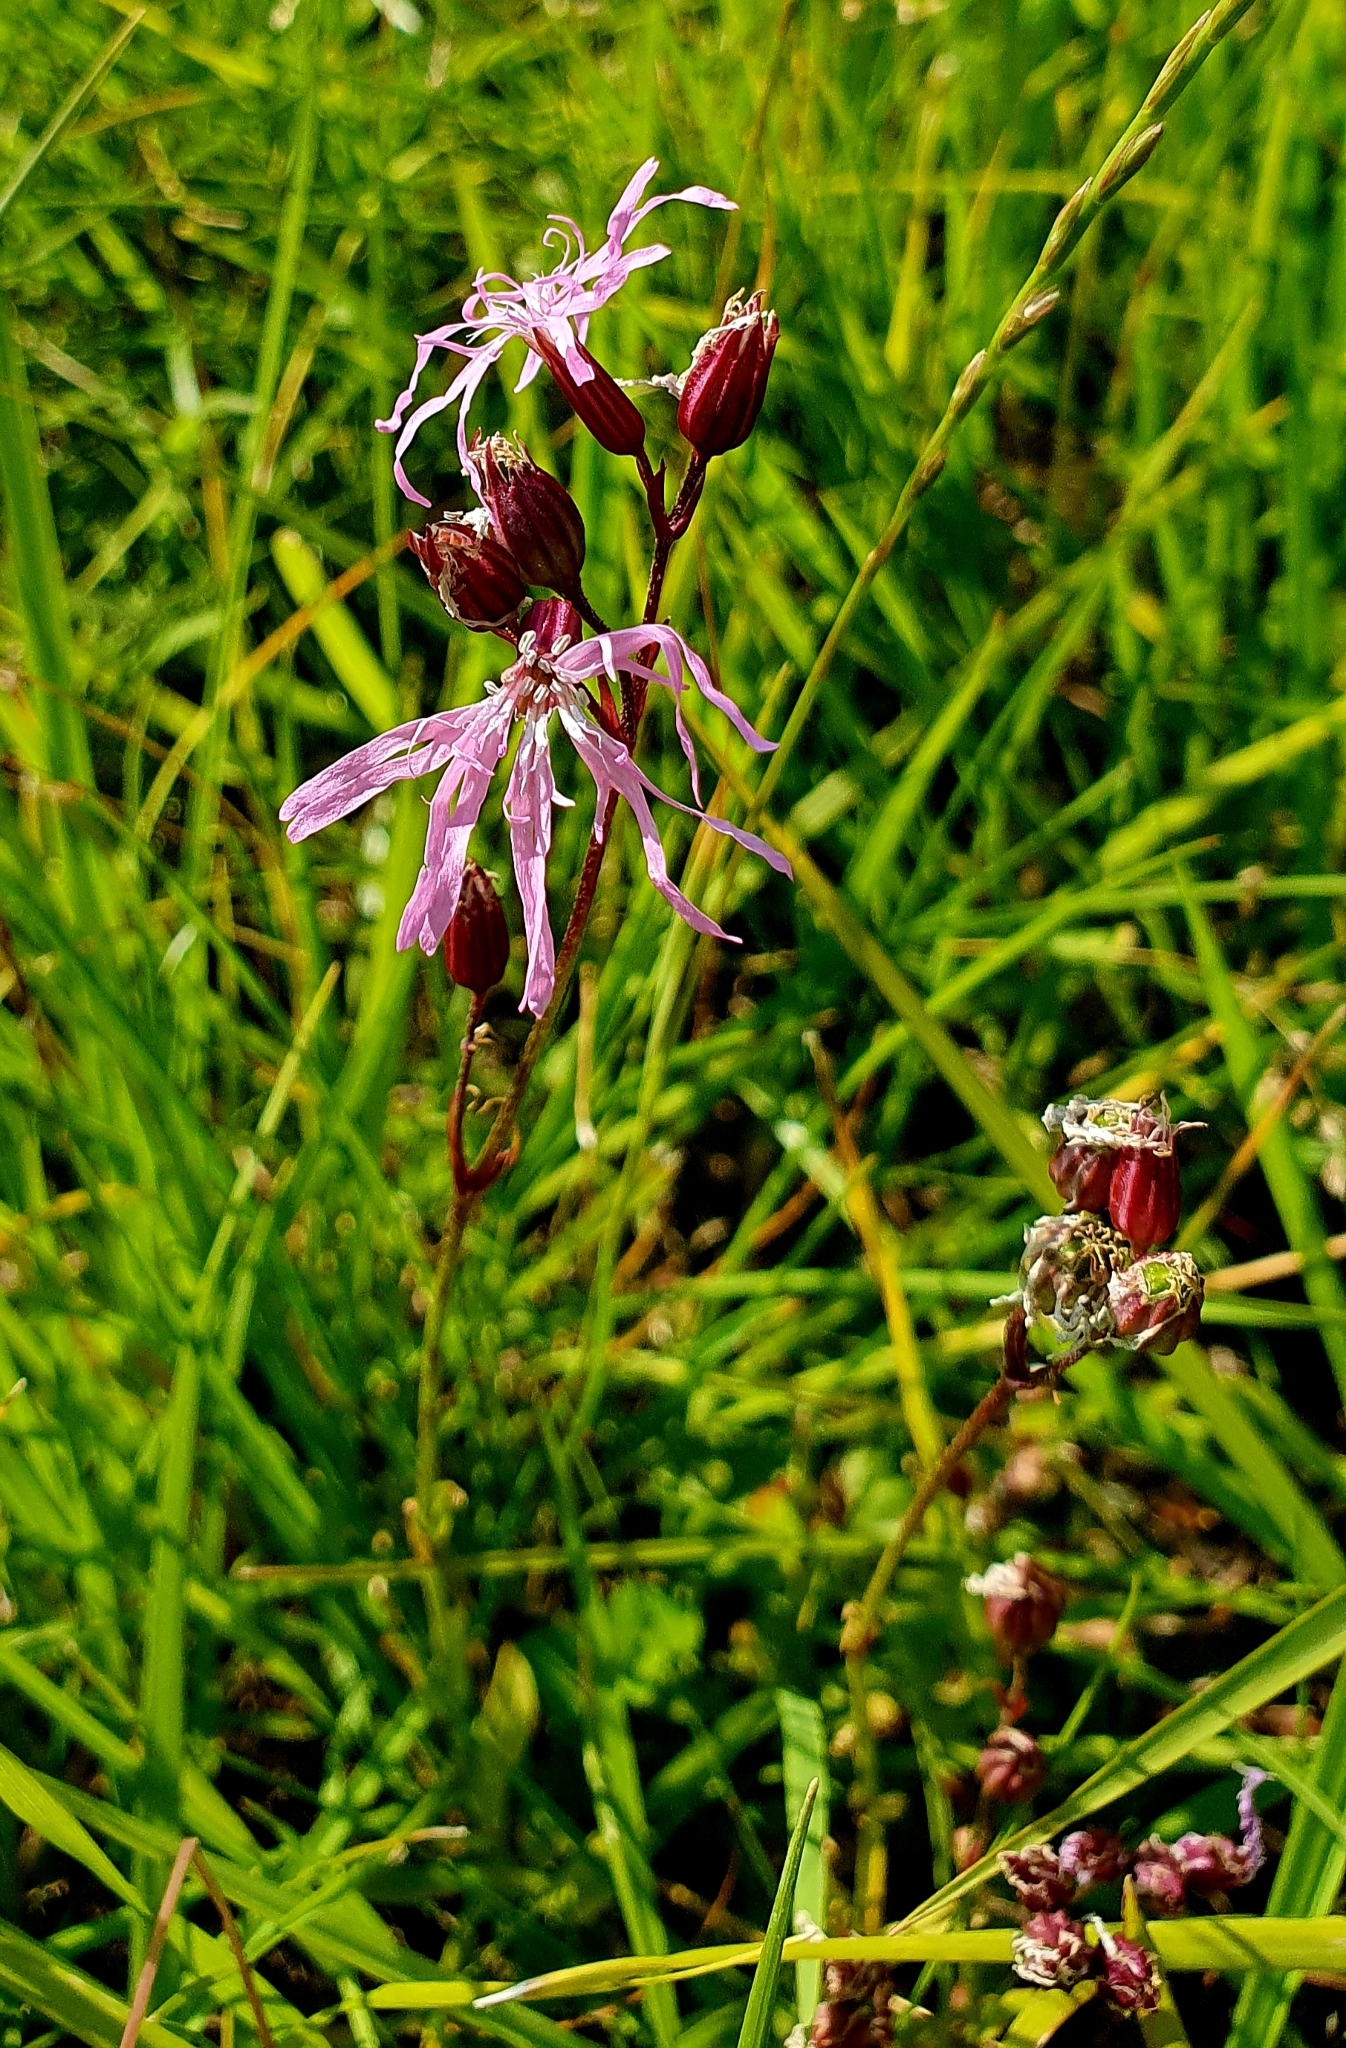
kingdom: Plantae
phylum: Tracheophyta
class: Magnoliopsida
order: Caryophyllales
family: Caryophyllaceae
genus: Silene
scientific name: Silene flos-cuculi
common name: Ragged-robin
